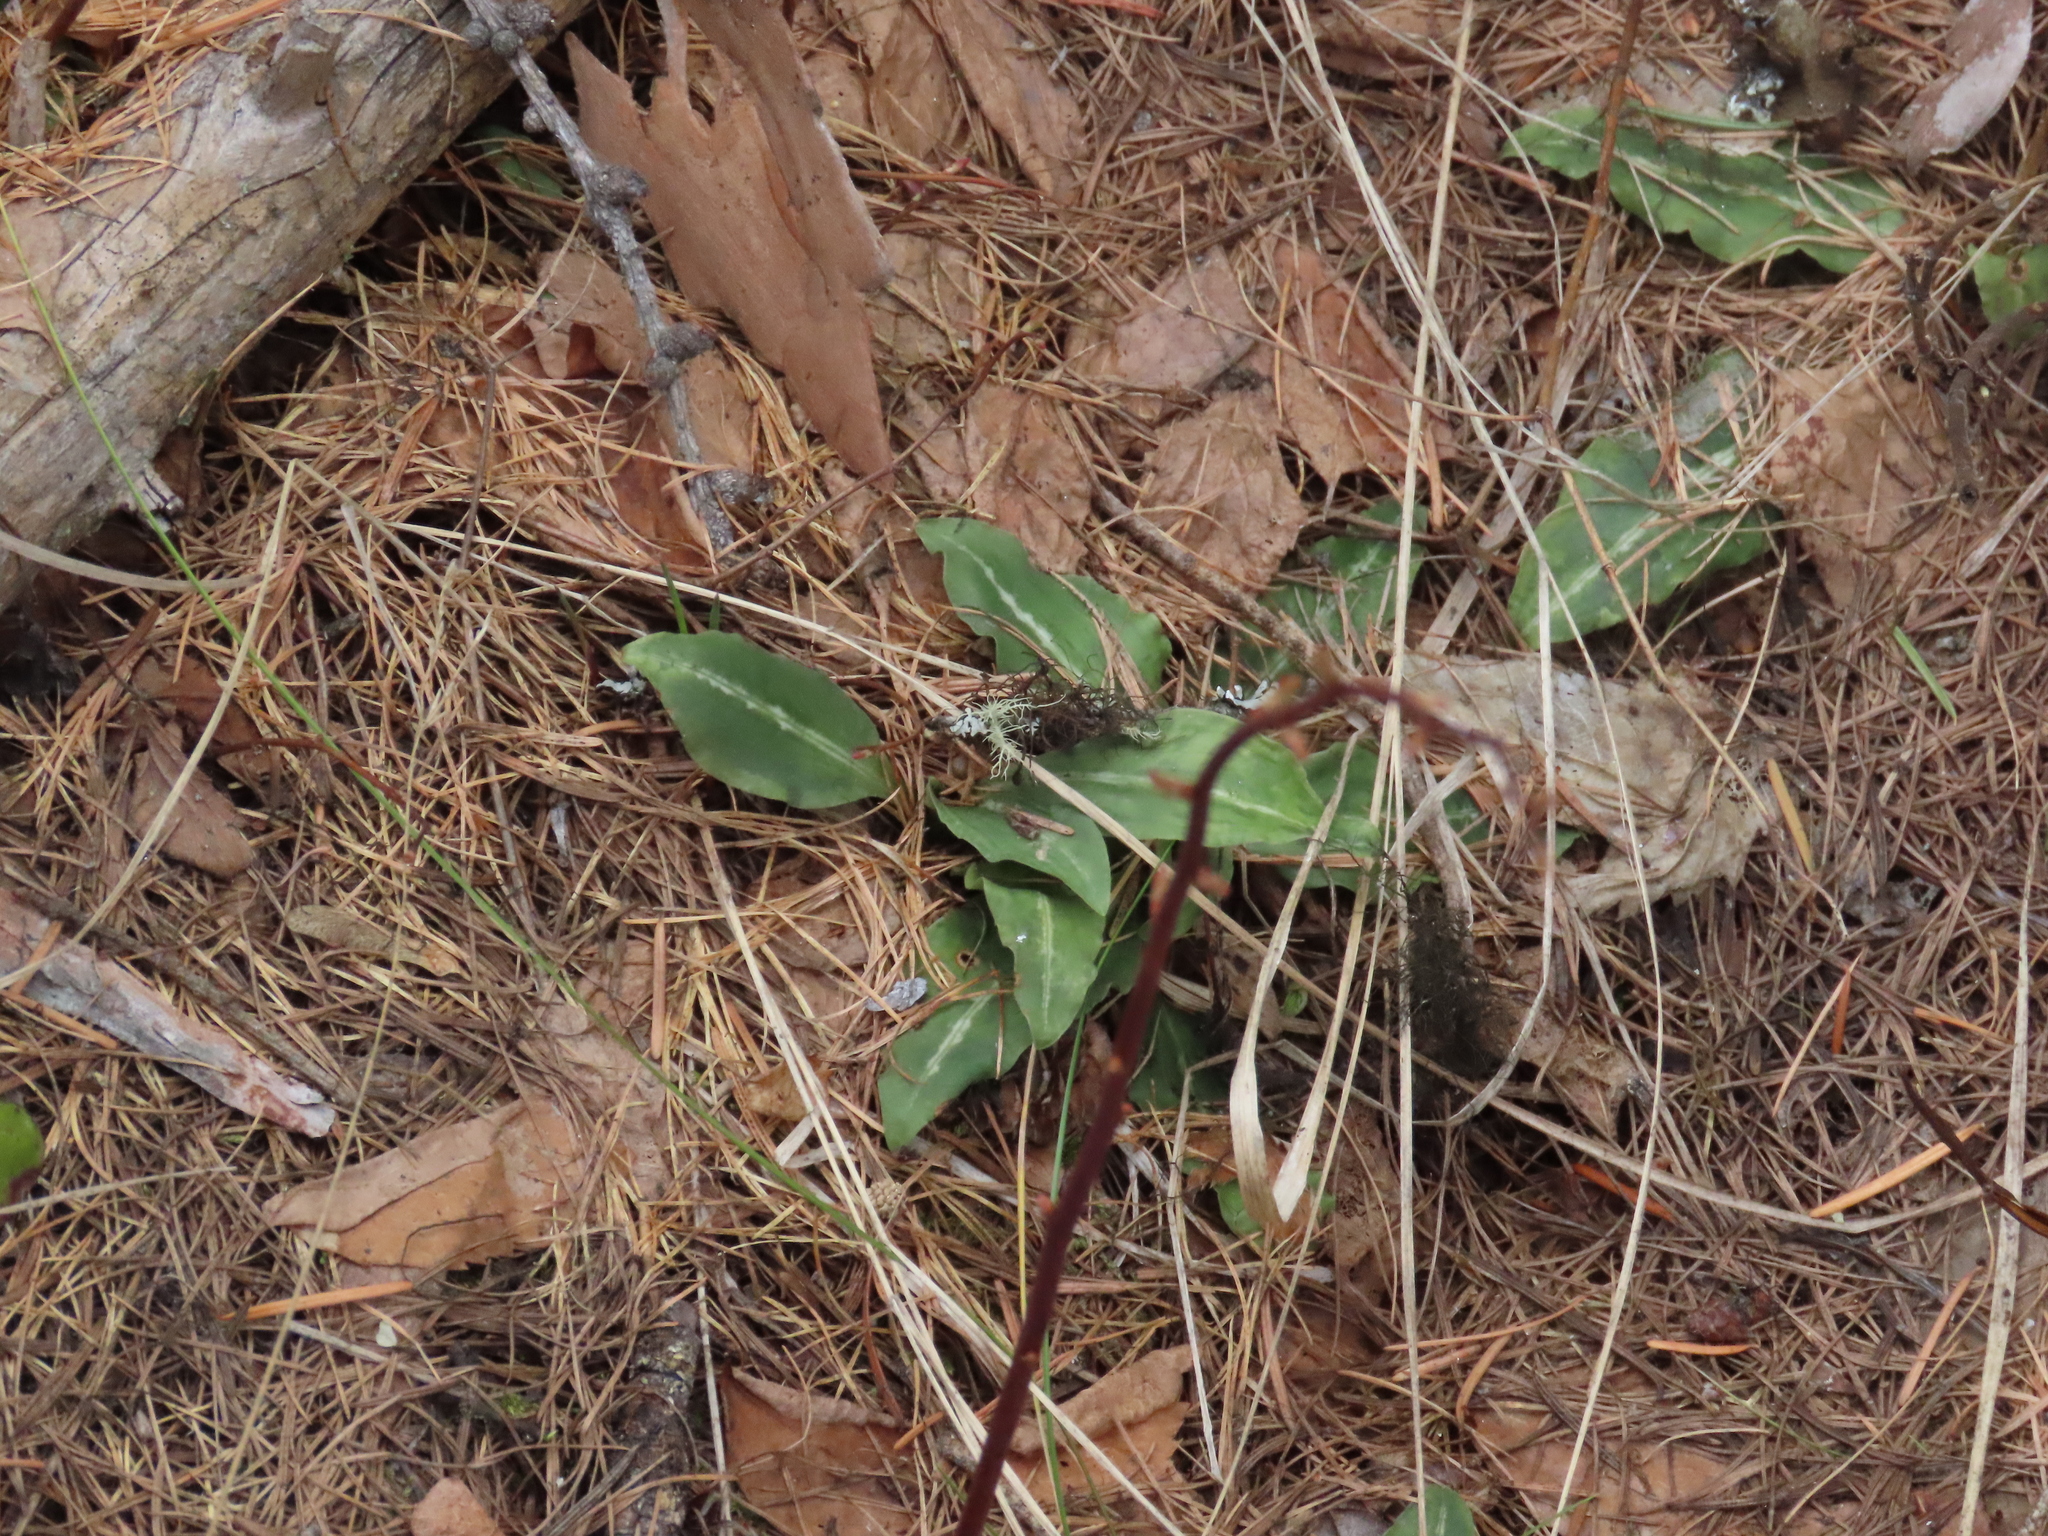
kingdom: Plantae
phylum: Tracheophyta
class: Liliopsida
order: Asparagales
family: Orchidaceae
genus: Goodyera
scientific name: Goodyera oblongifolia
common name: Giant rattlesnake-plantain
